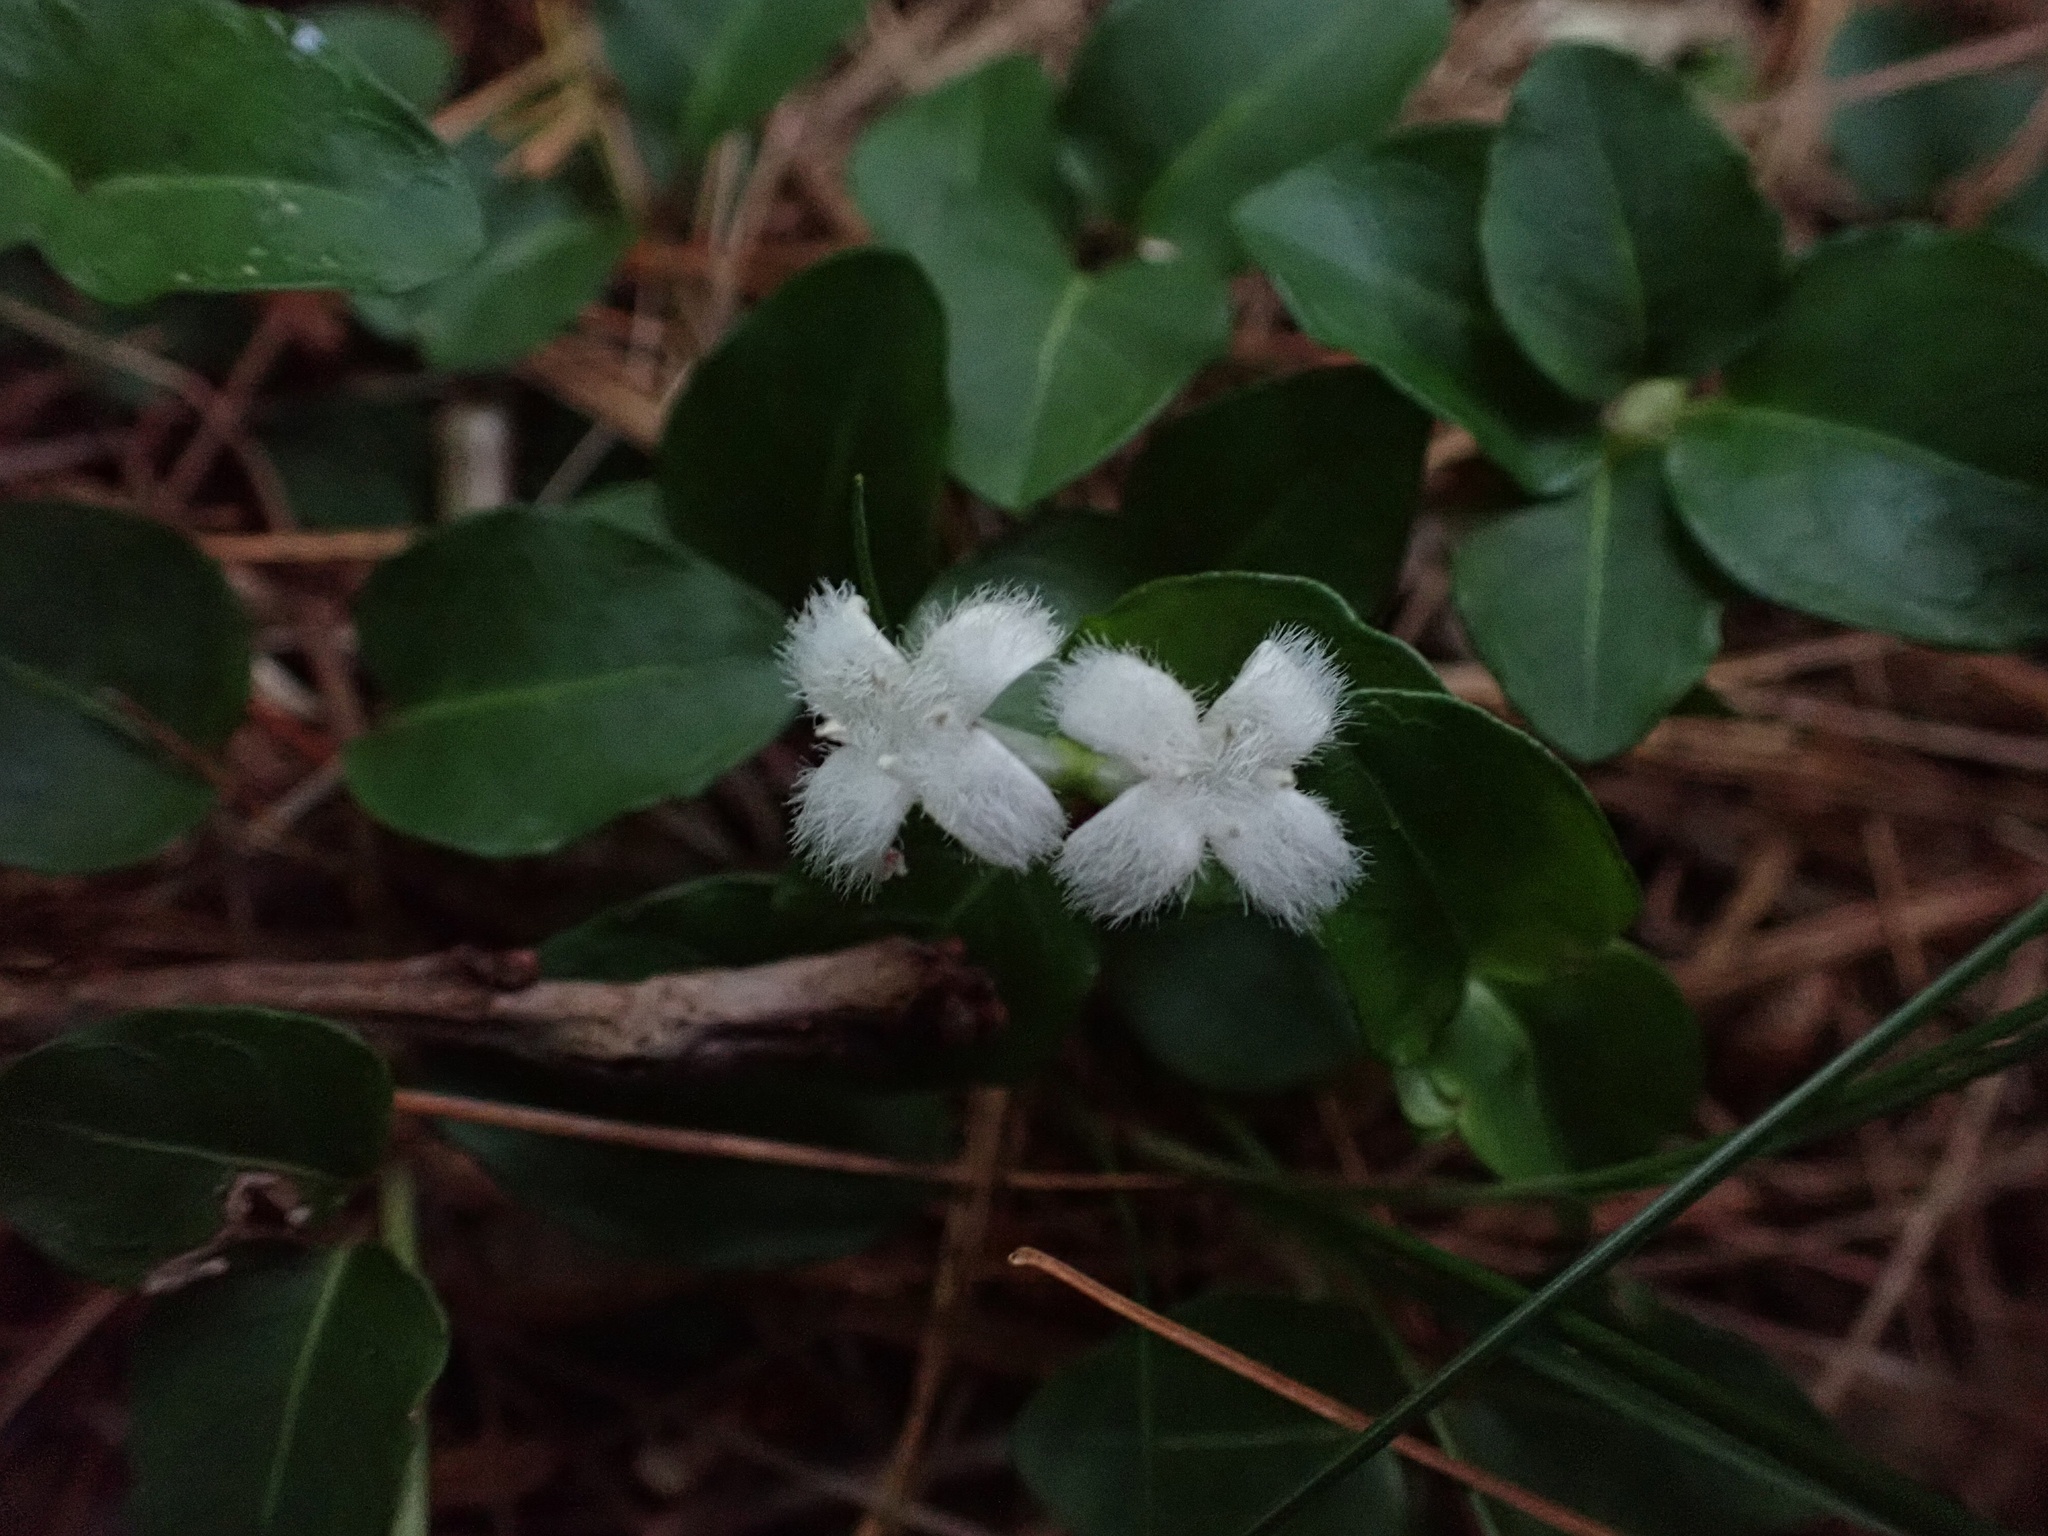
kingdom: Plantae
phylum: Tracheophyta
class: Magnoliopsida
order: Gentianales
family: Rubiaceae
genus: Mitchella
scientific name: Mitchella repens
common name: Partridge-berry
